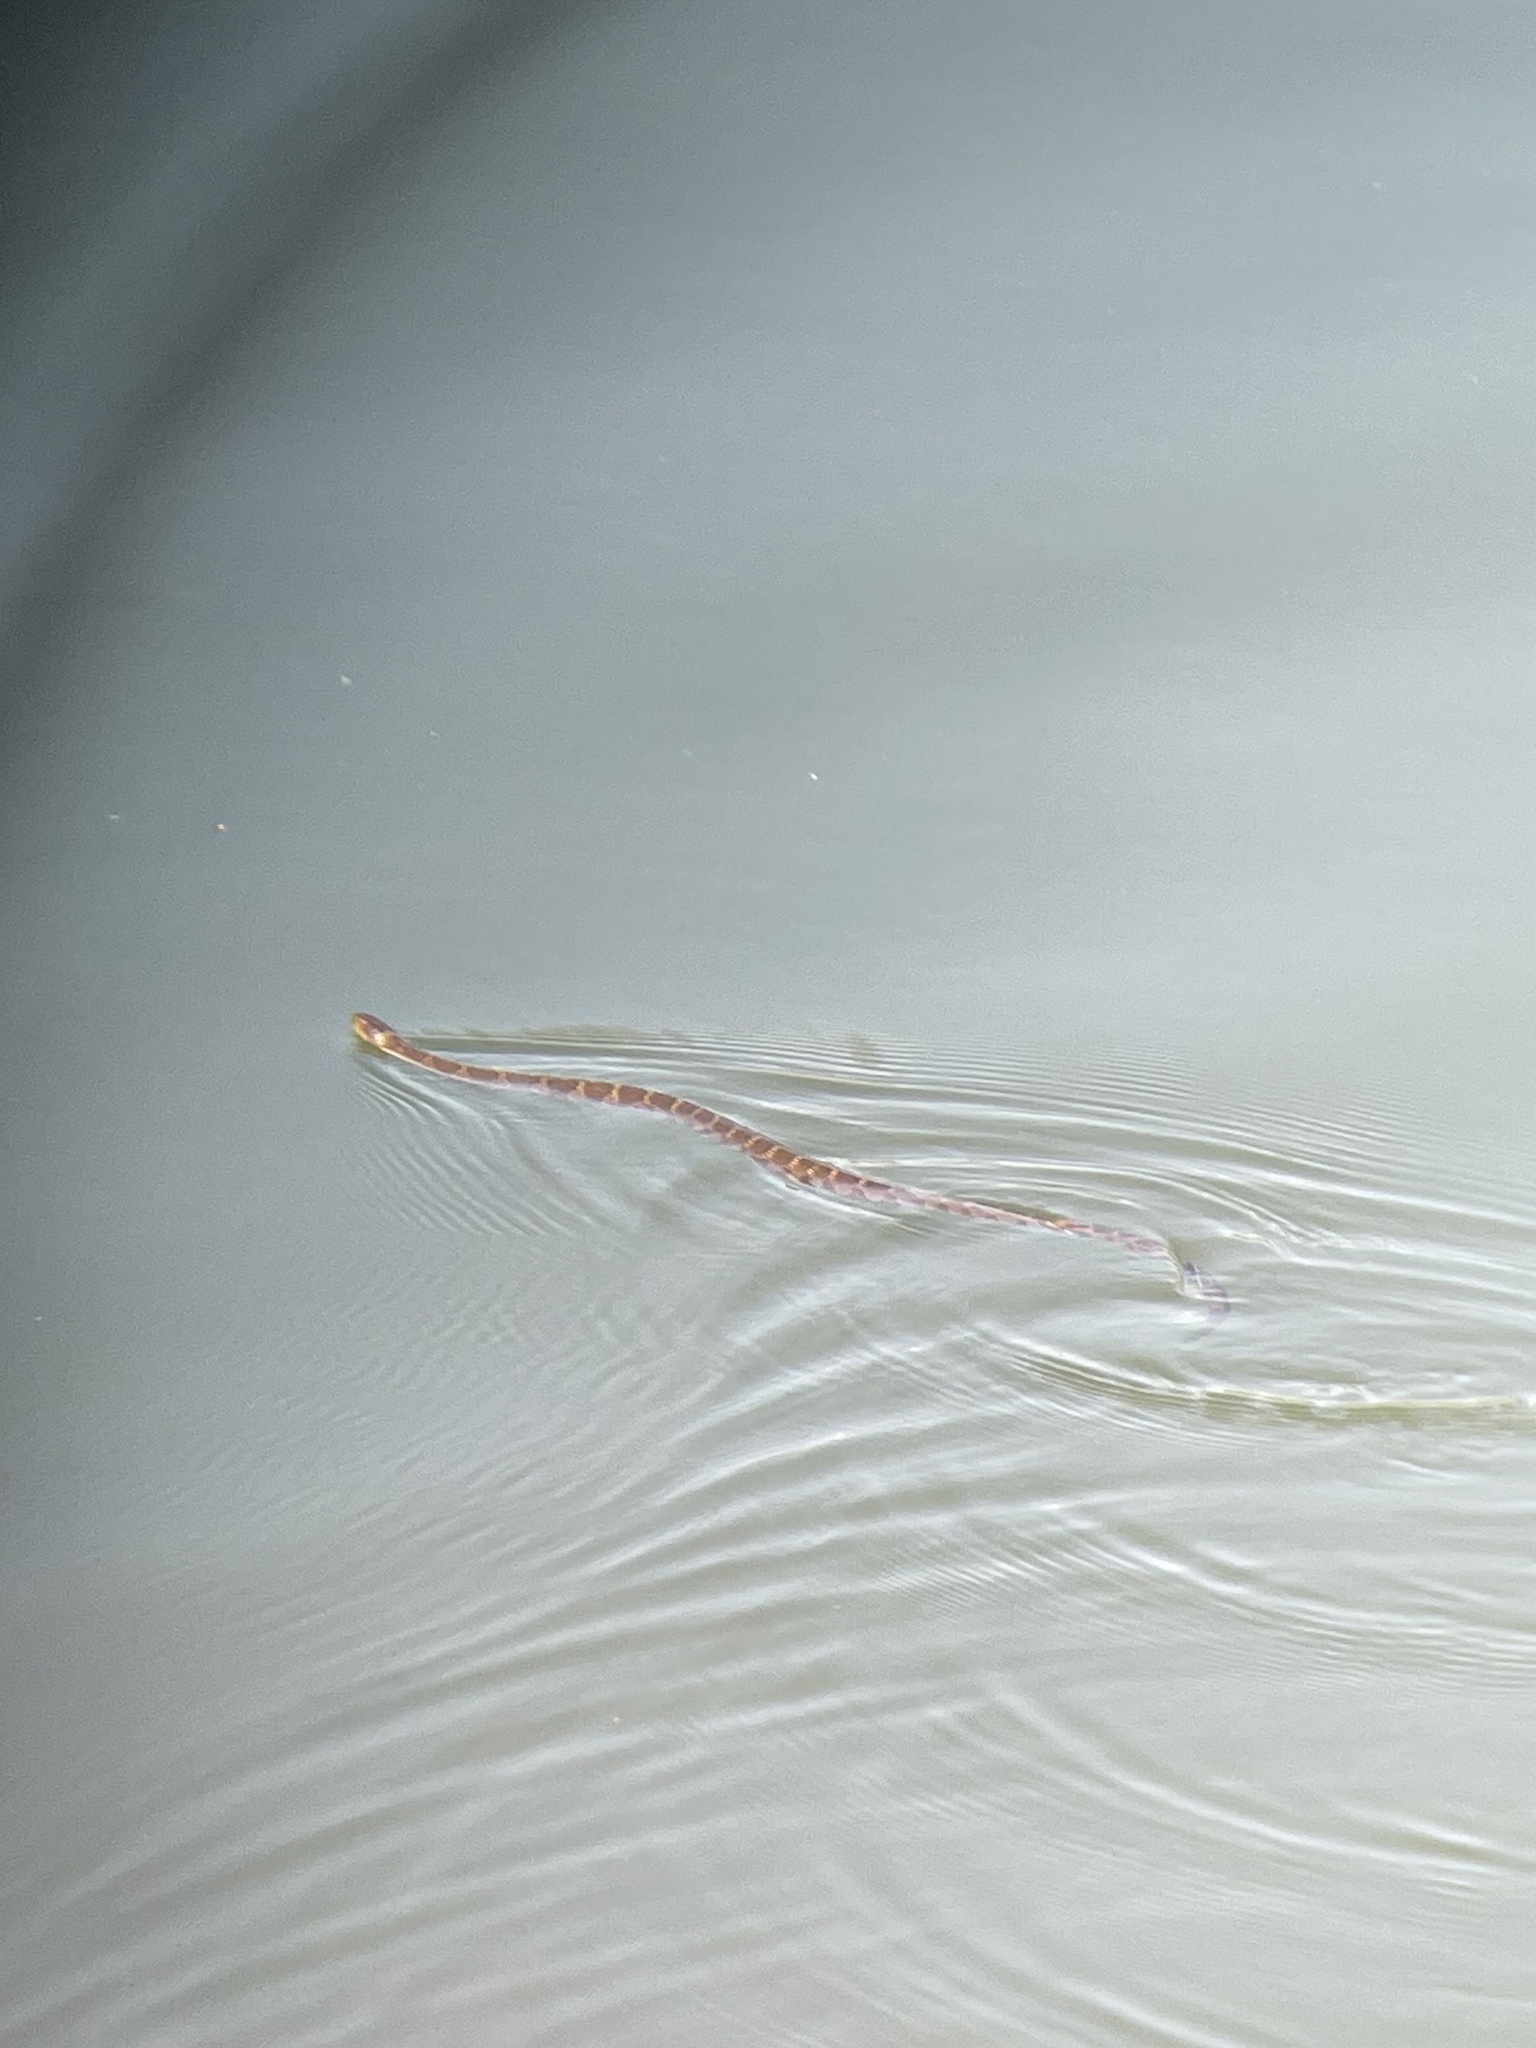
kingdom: Animalia
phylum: Chordata
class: Squamata
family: Colubridae
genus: Nerodia
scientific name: Nerodia sipedon
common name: Northern water snake
